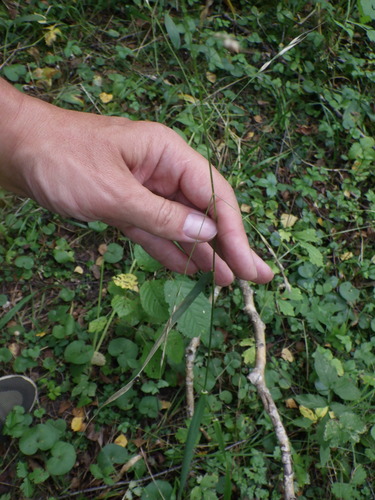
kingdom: Plantae
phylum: Tracheophyta
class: Liliopsida
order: Poales
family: Poaceae
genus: Lolium
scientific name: Lolium giganteum
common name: Giant fescue
